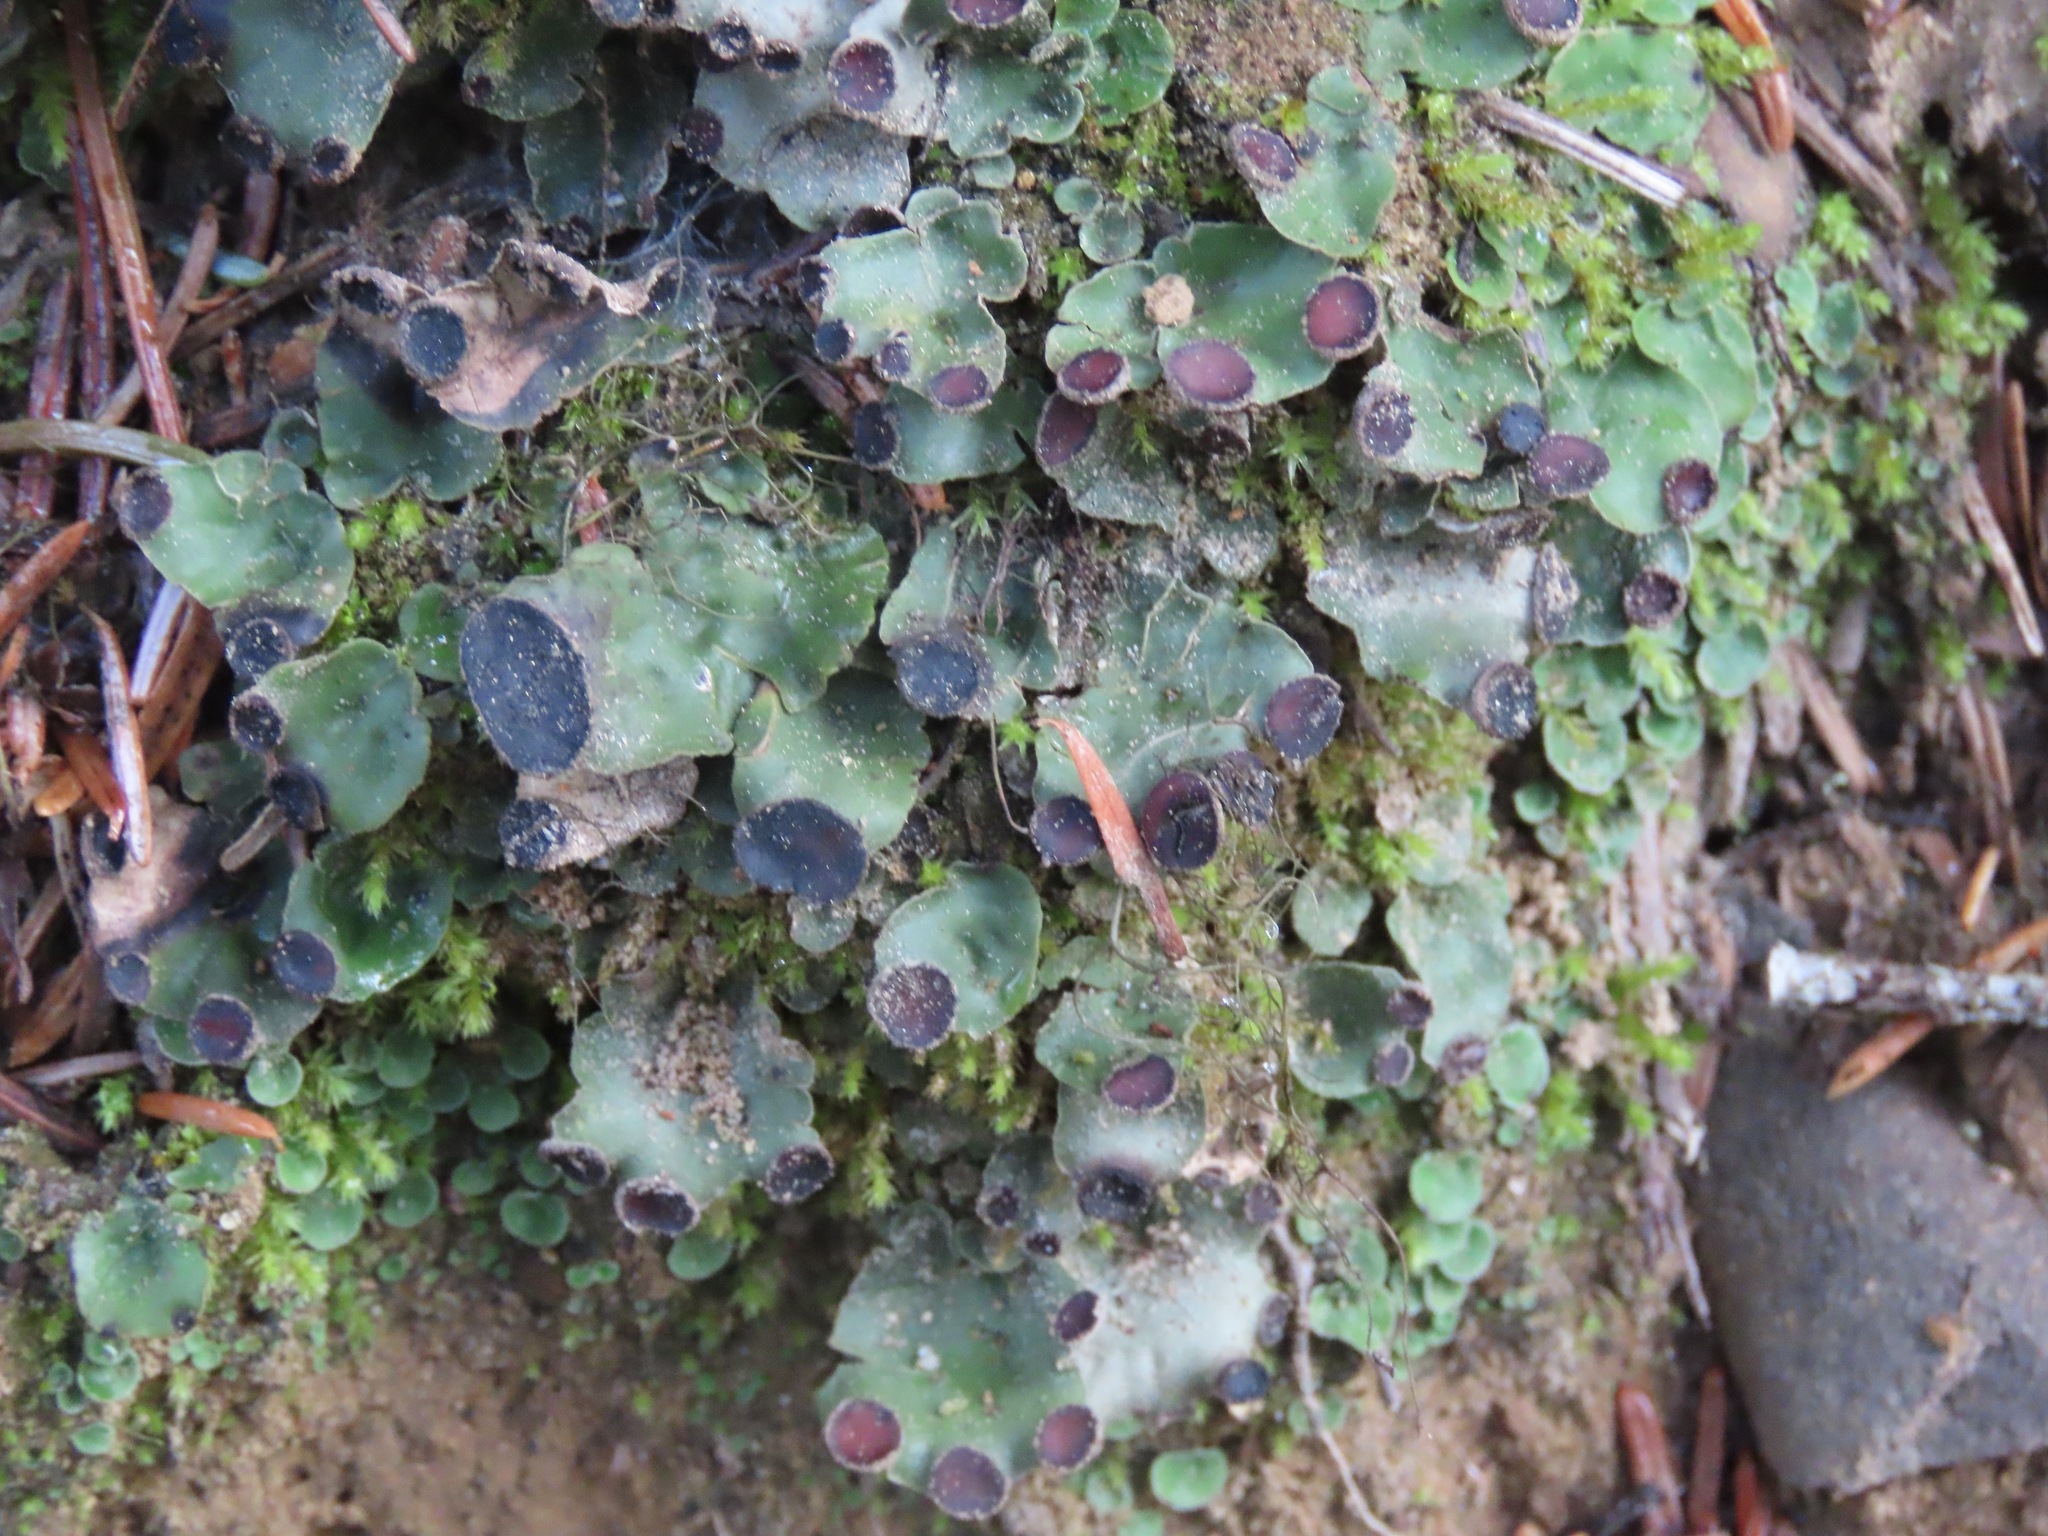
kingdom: Fungi
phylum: Ascomycota
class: Lecanoromycetes
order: Peltigerales
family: Peltigeraceae
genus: Peltigera
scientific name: Peltigera venosa
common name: Pixie gowns lichen
